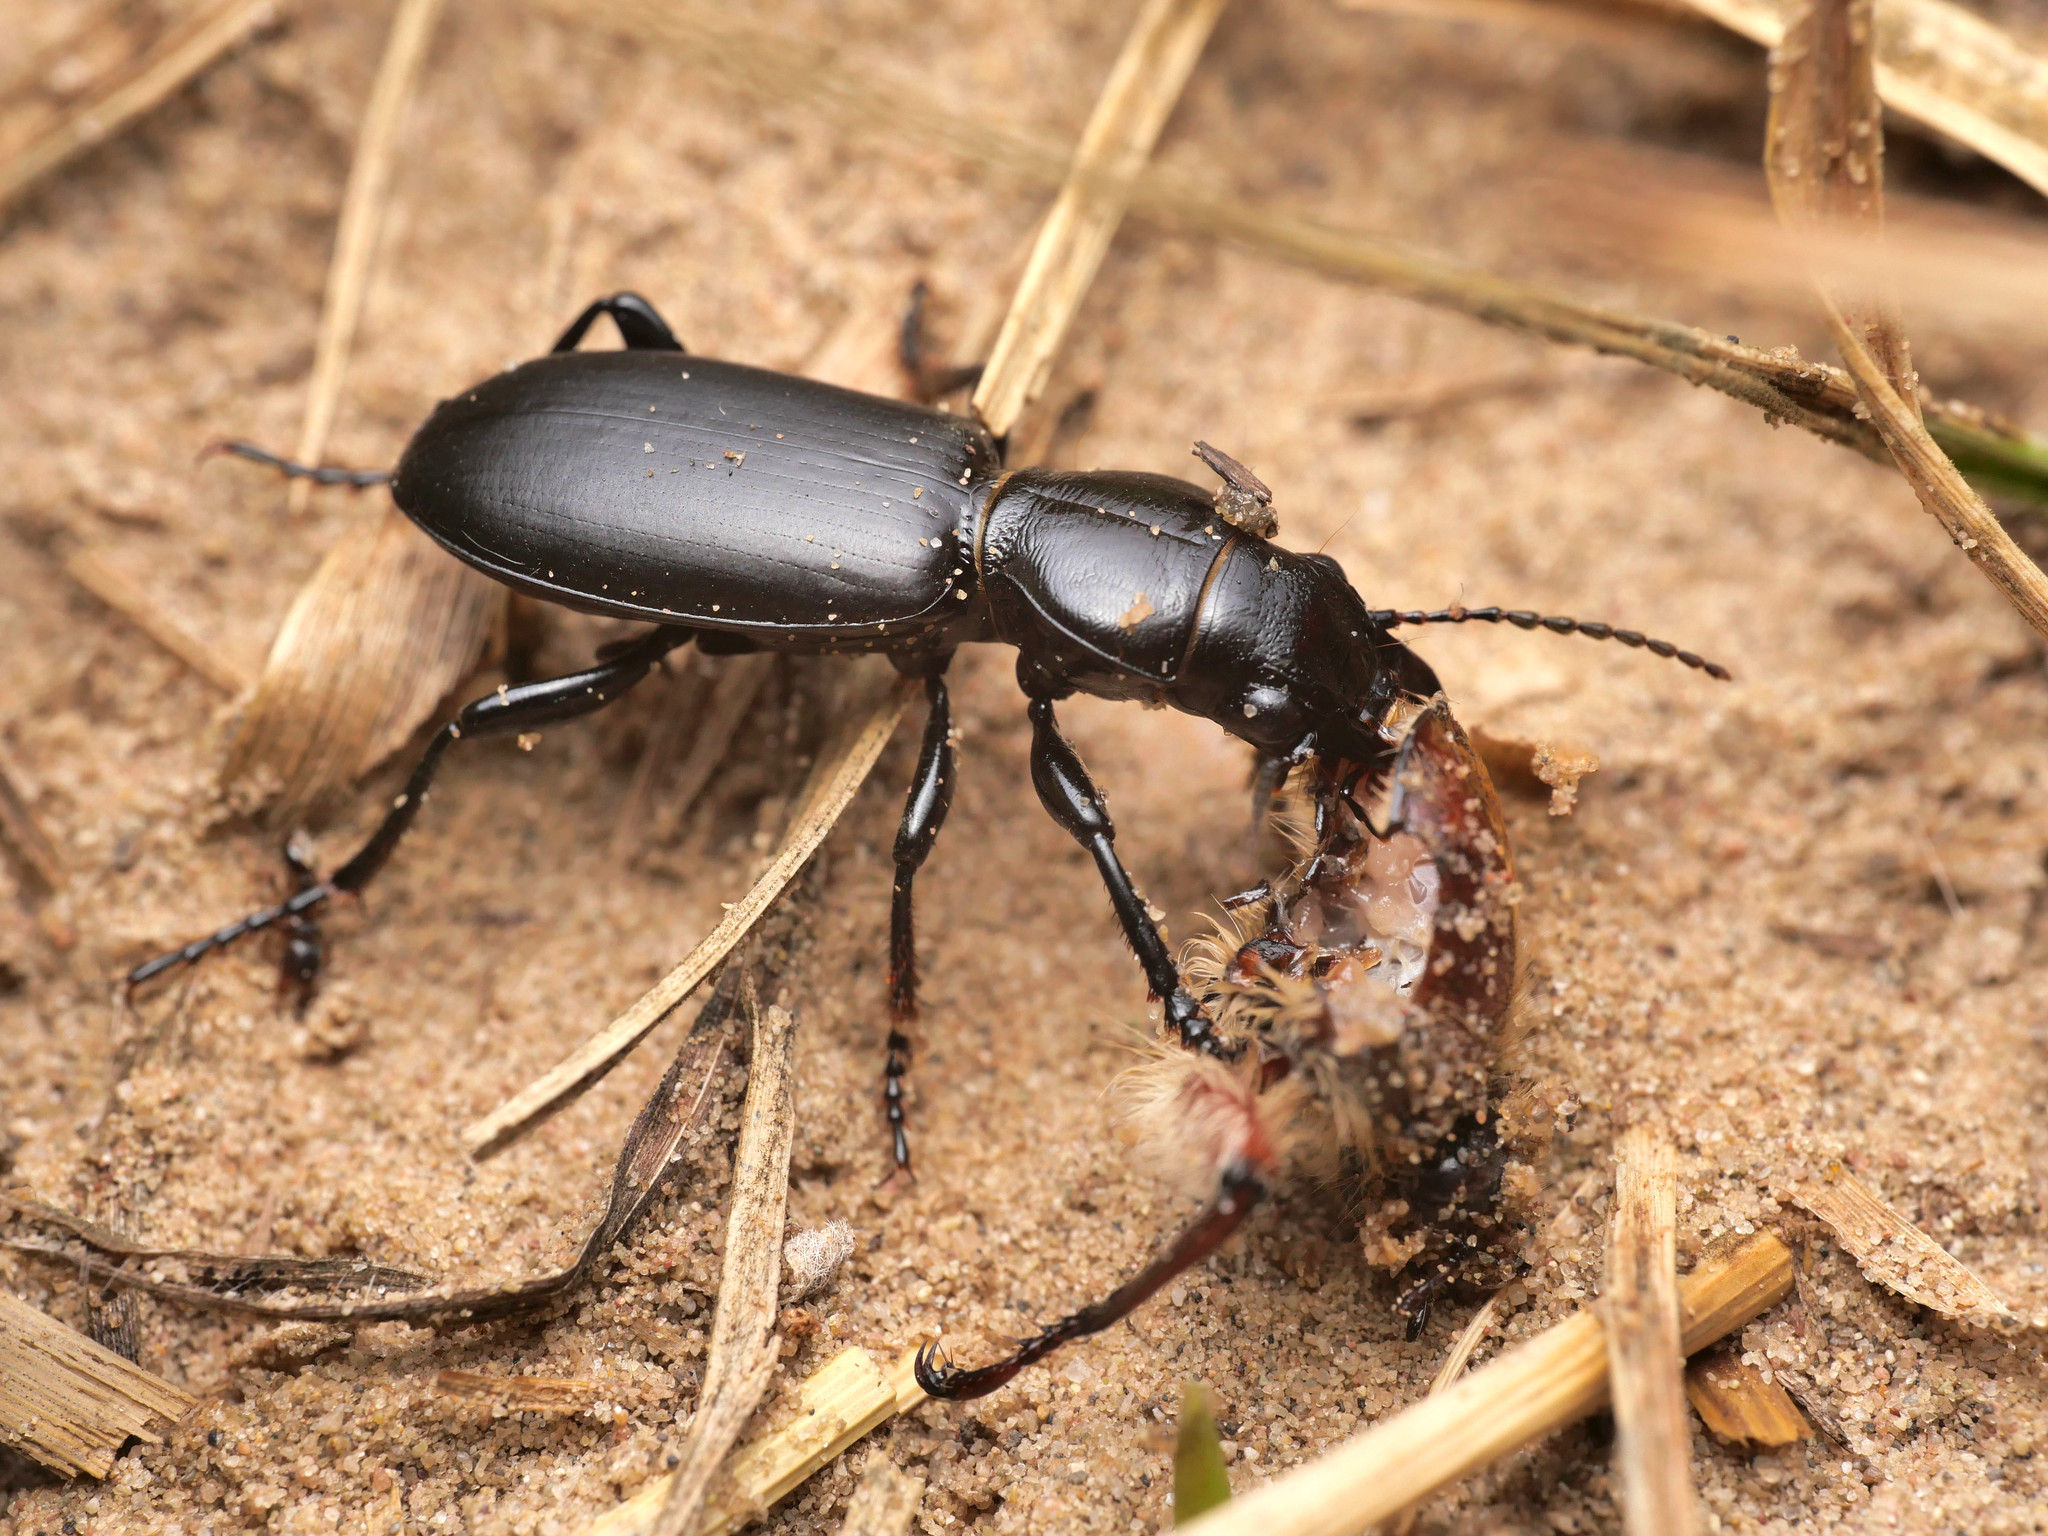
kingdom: Animalia
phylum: Arthropoda
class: Insecta
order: Coleoptera
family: Carabidae
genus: Broscus
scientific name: Broscus cephalotes
